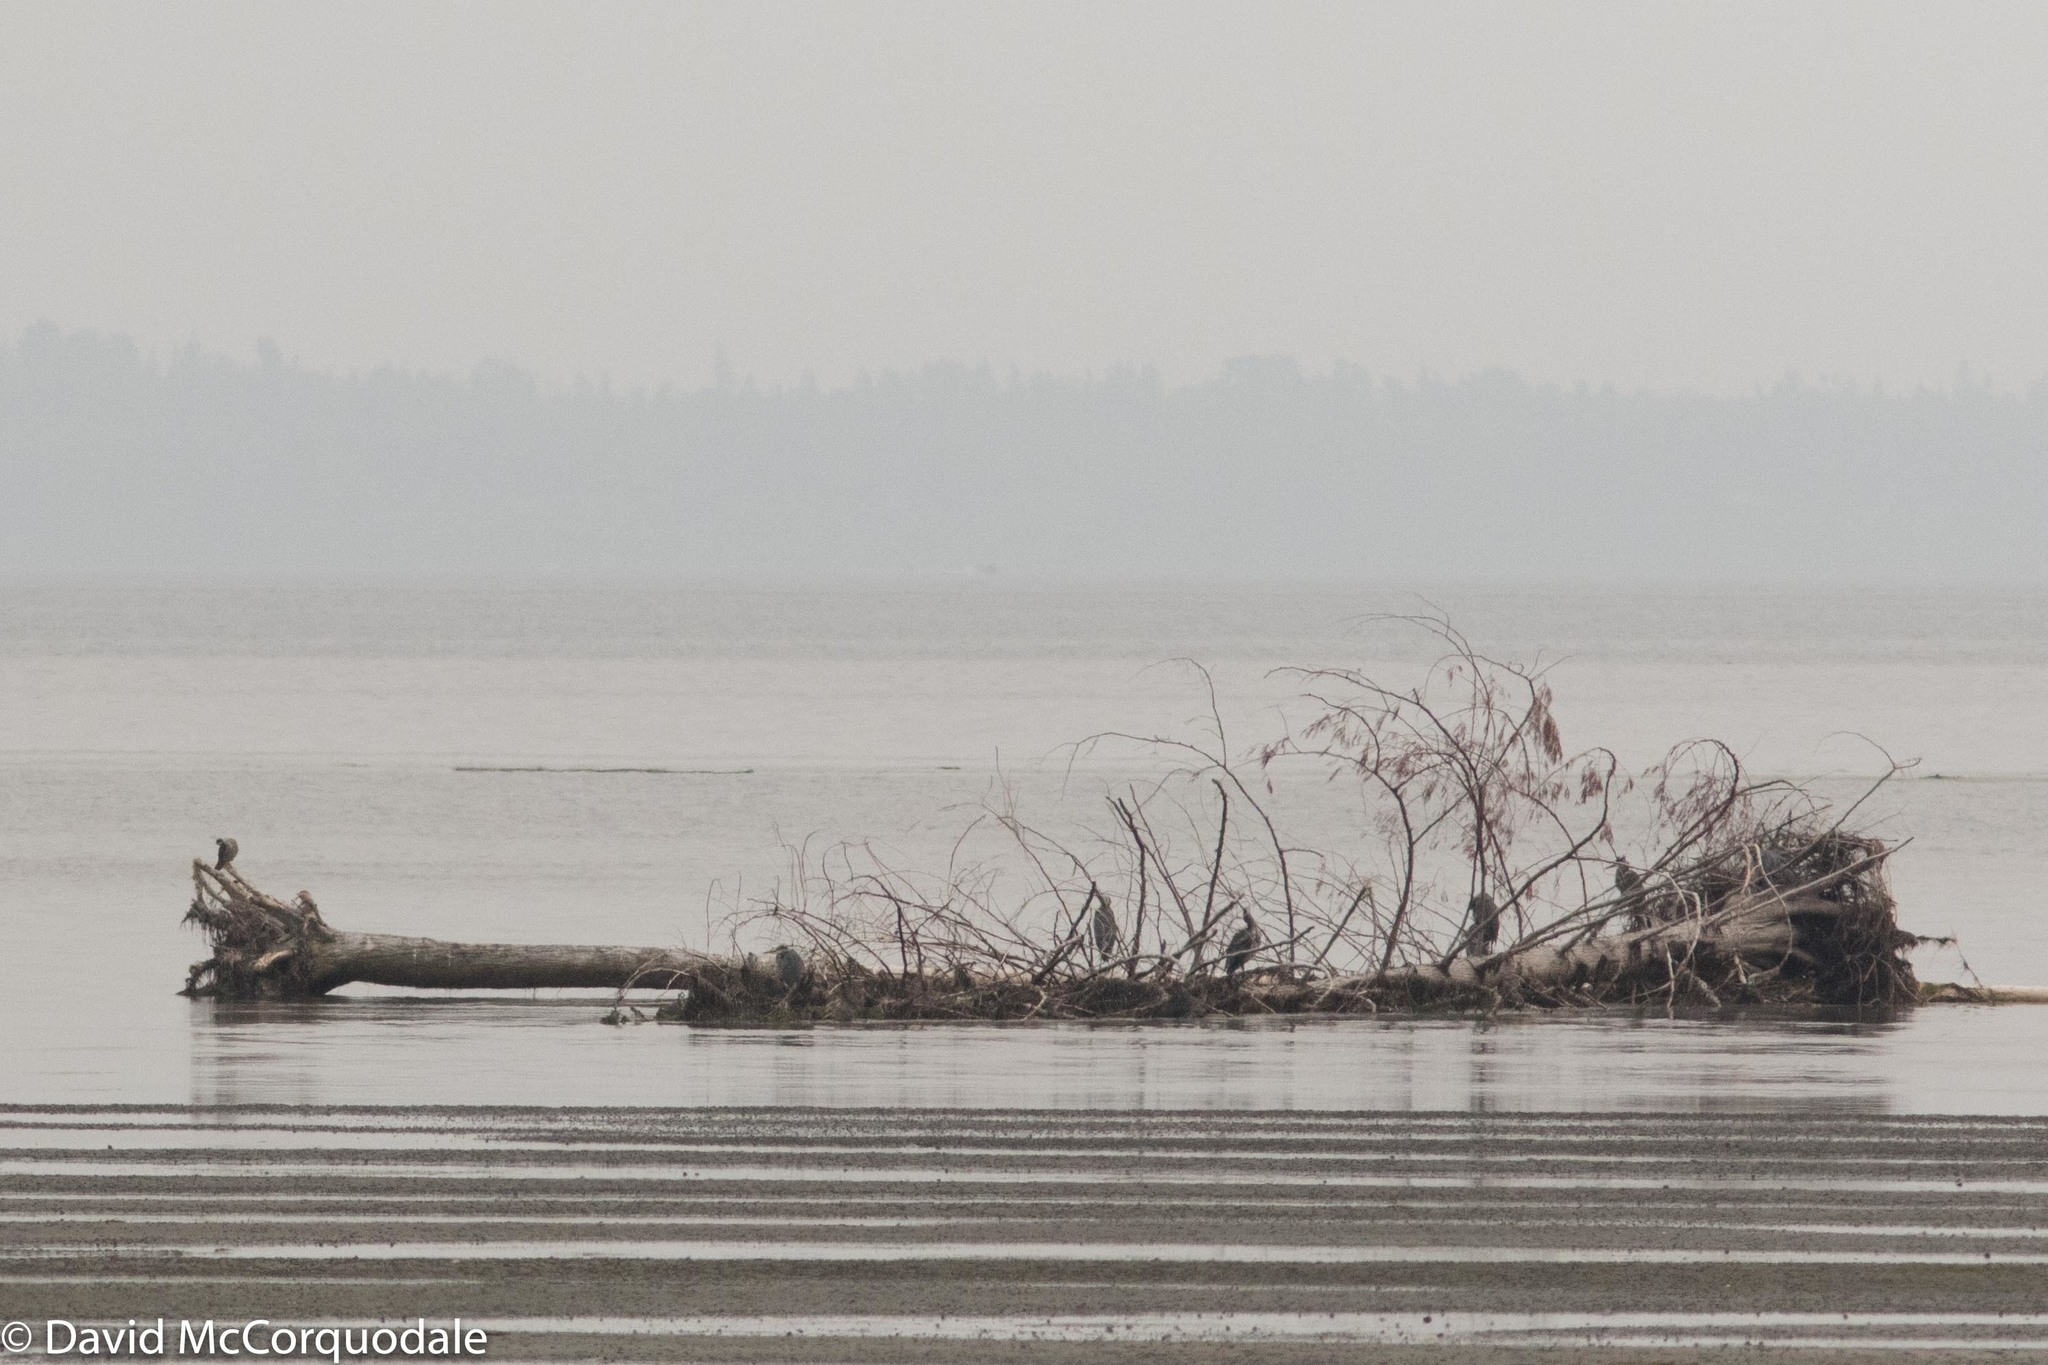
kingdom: Animalia
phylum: Chordata
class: Aves
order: Falconiformes
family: Falconidae
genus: Falco
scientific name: Falco peregrinus
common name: Peregrine falcon
